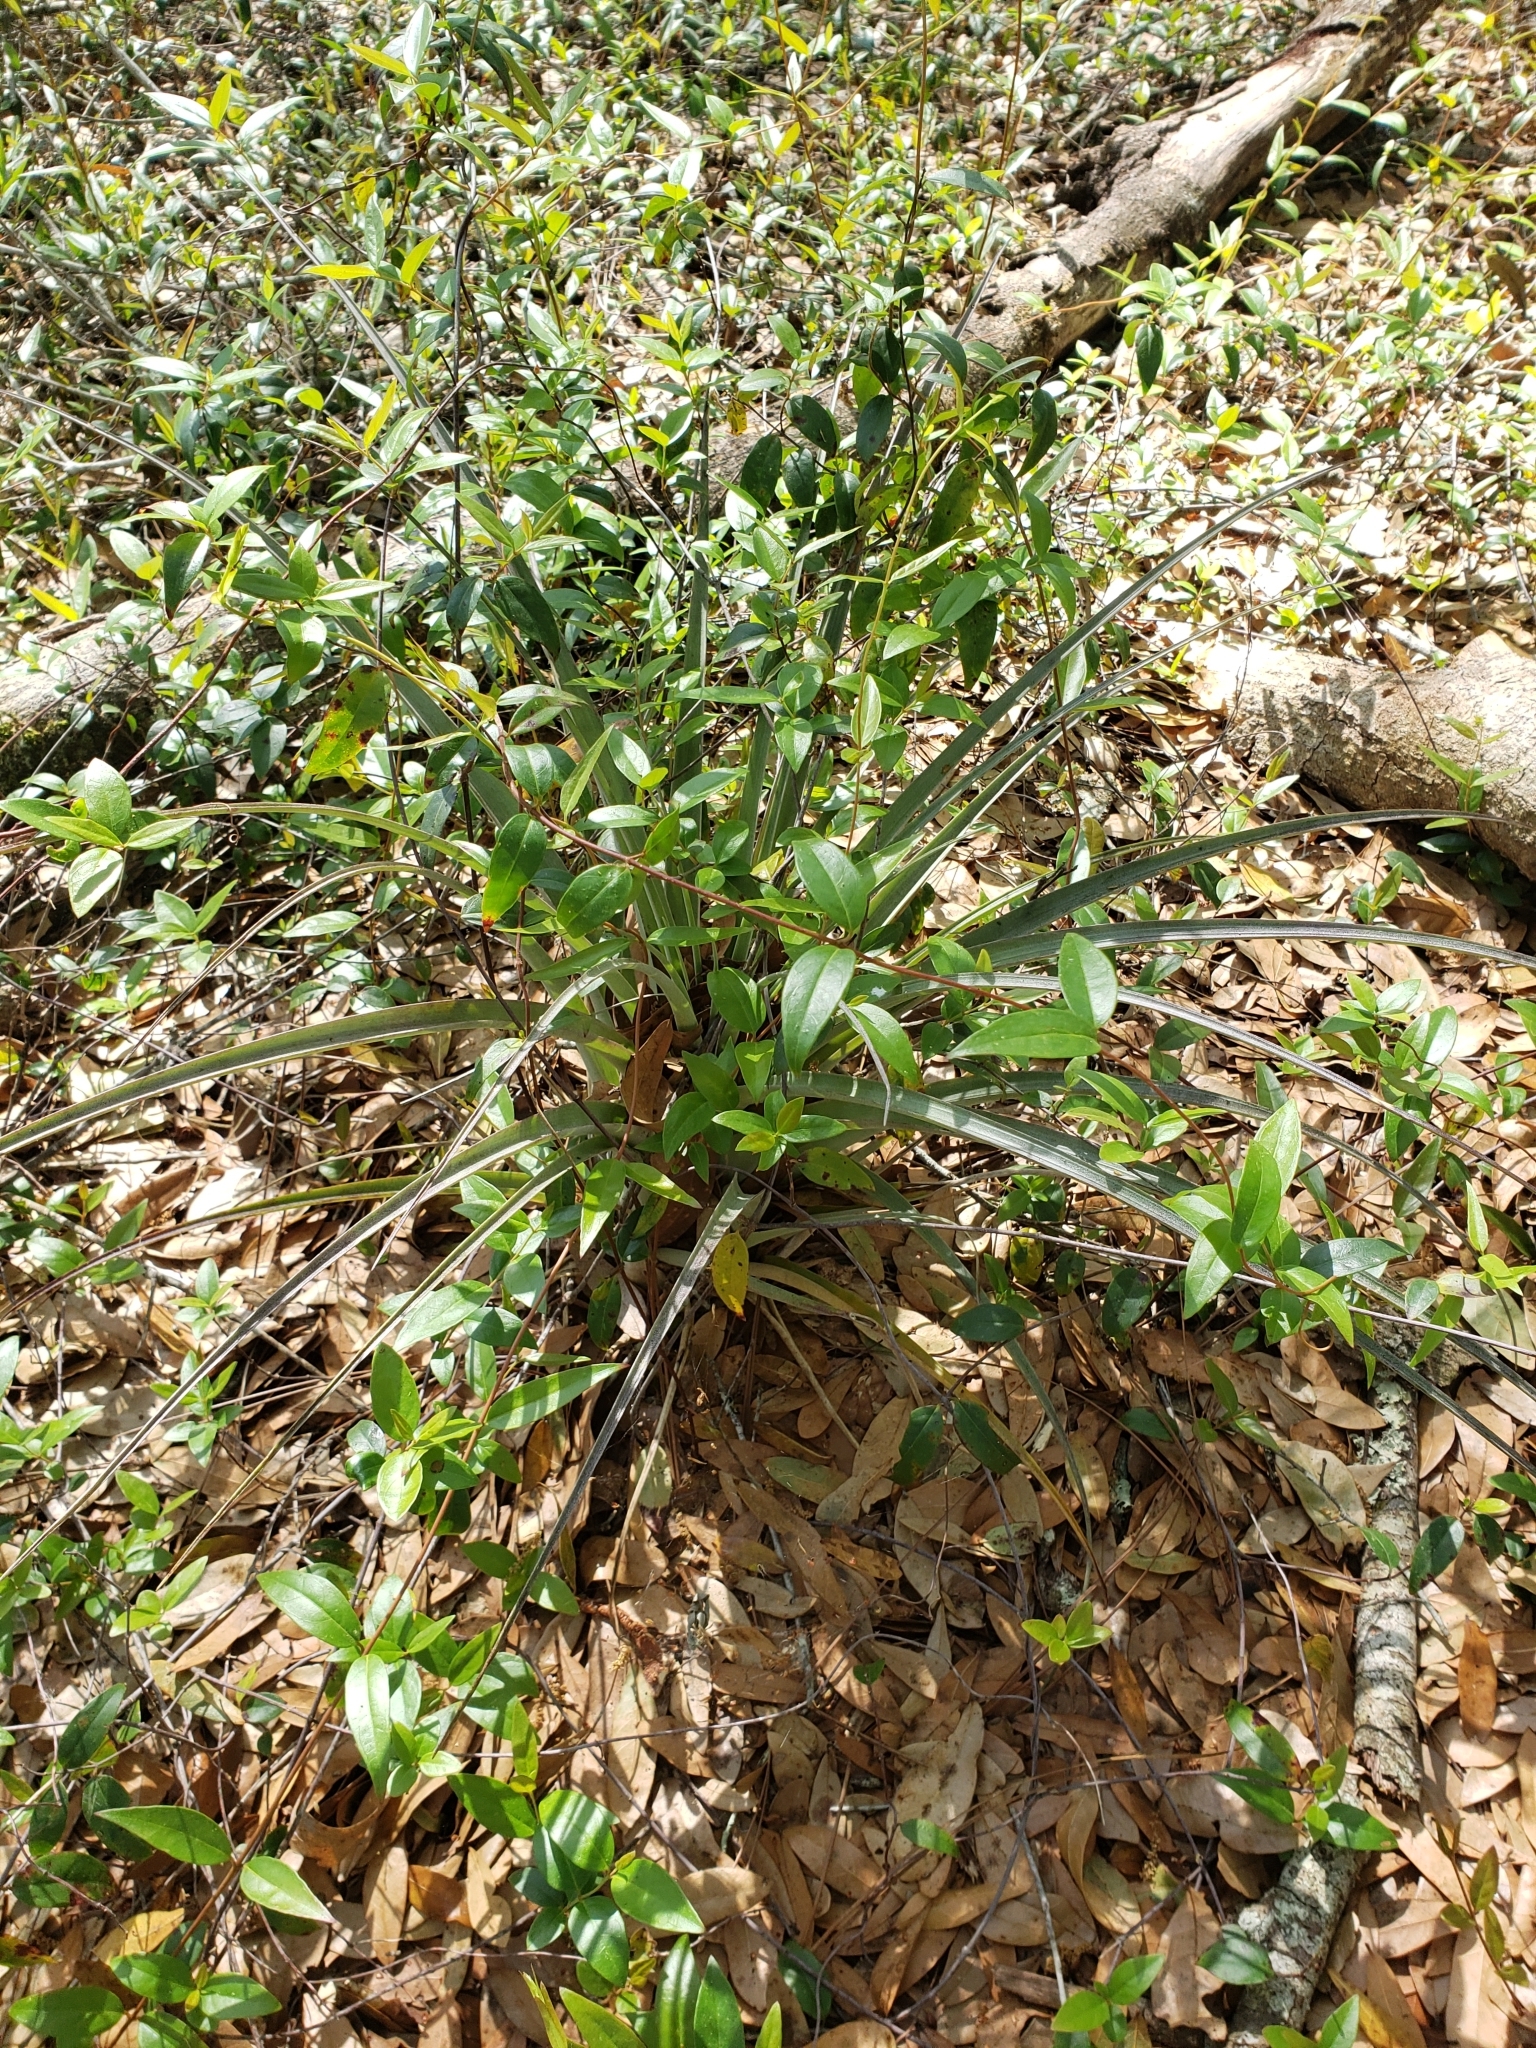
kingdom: Plantae
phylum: Tracheophyta
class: Liliopsida
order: Poales
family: Bromeliaceae
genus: Tillandsia
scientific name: Tillandsia utriculata
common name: Wild pine
